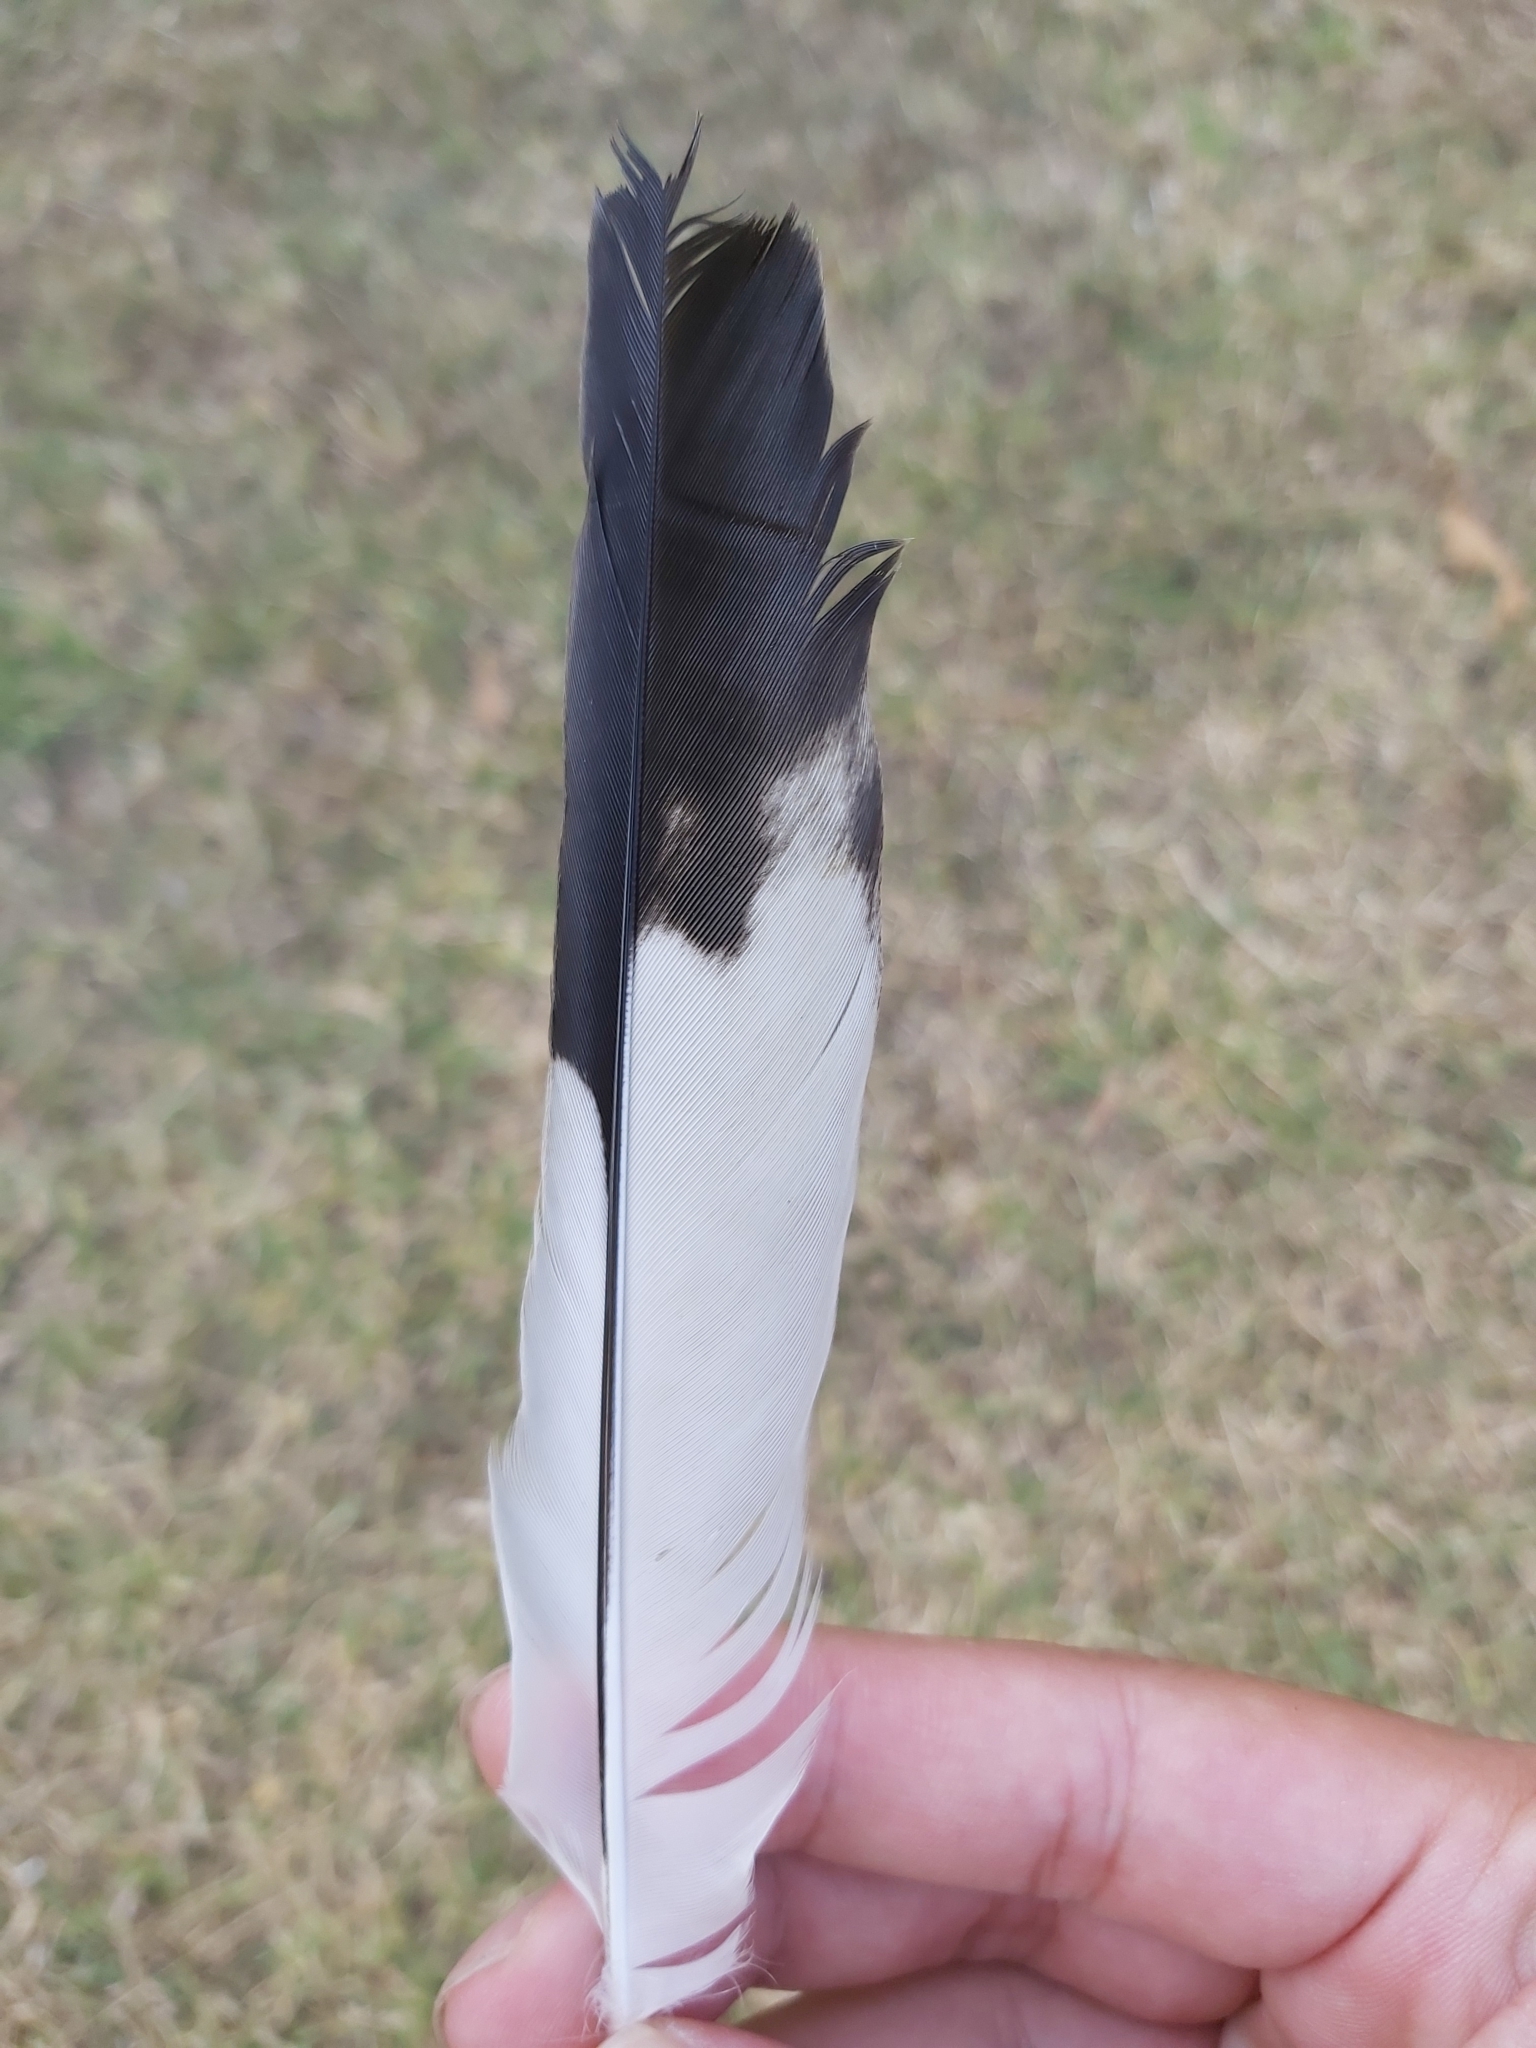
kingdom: Animalia
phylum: Chordata
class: Aves
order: Passeriformes
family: Cracticidae
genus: Gymnorhina
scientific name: Gymnorhina tibicen
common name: Australian magpie
